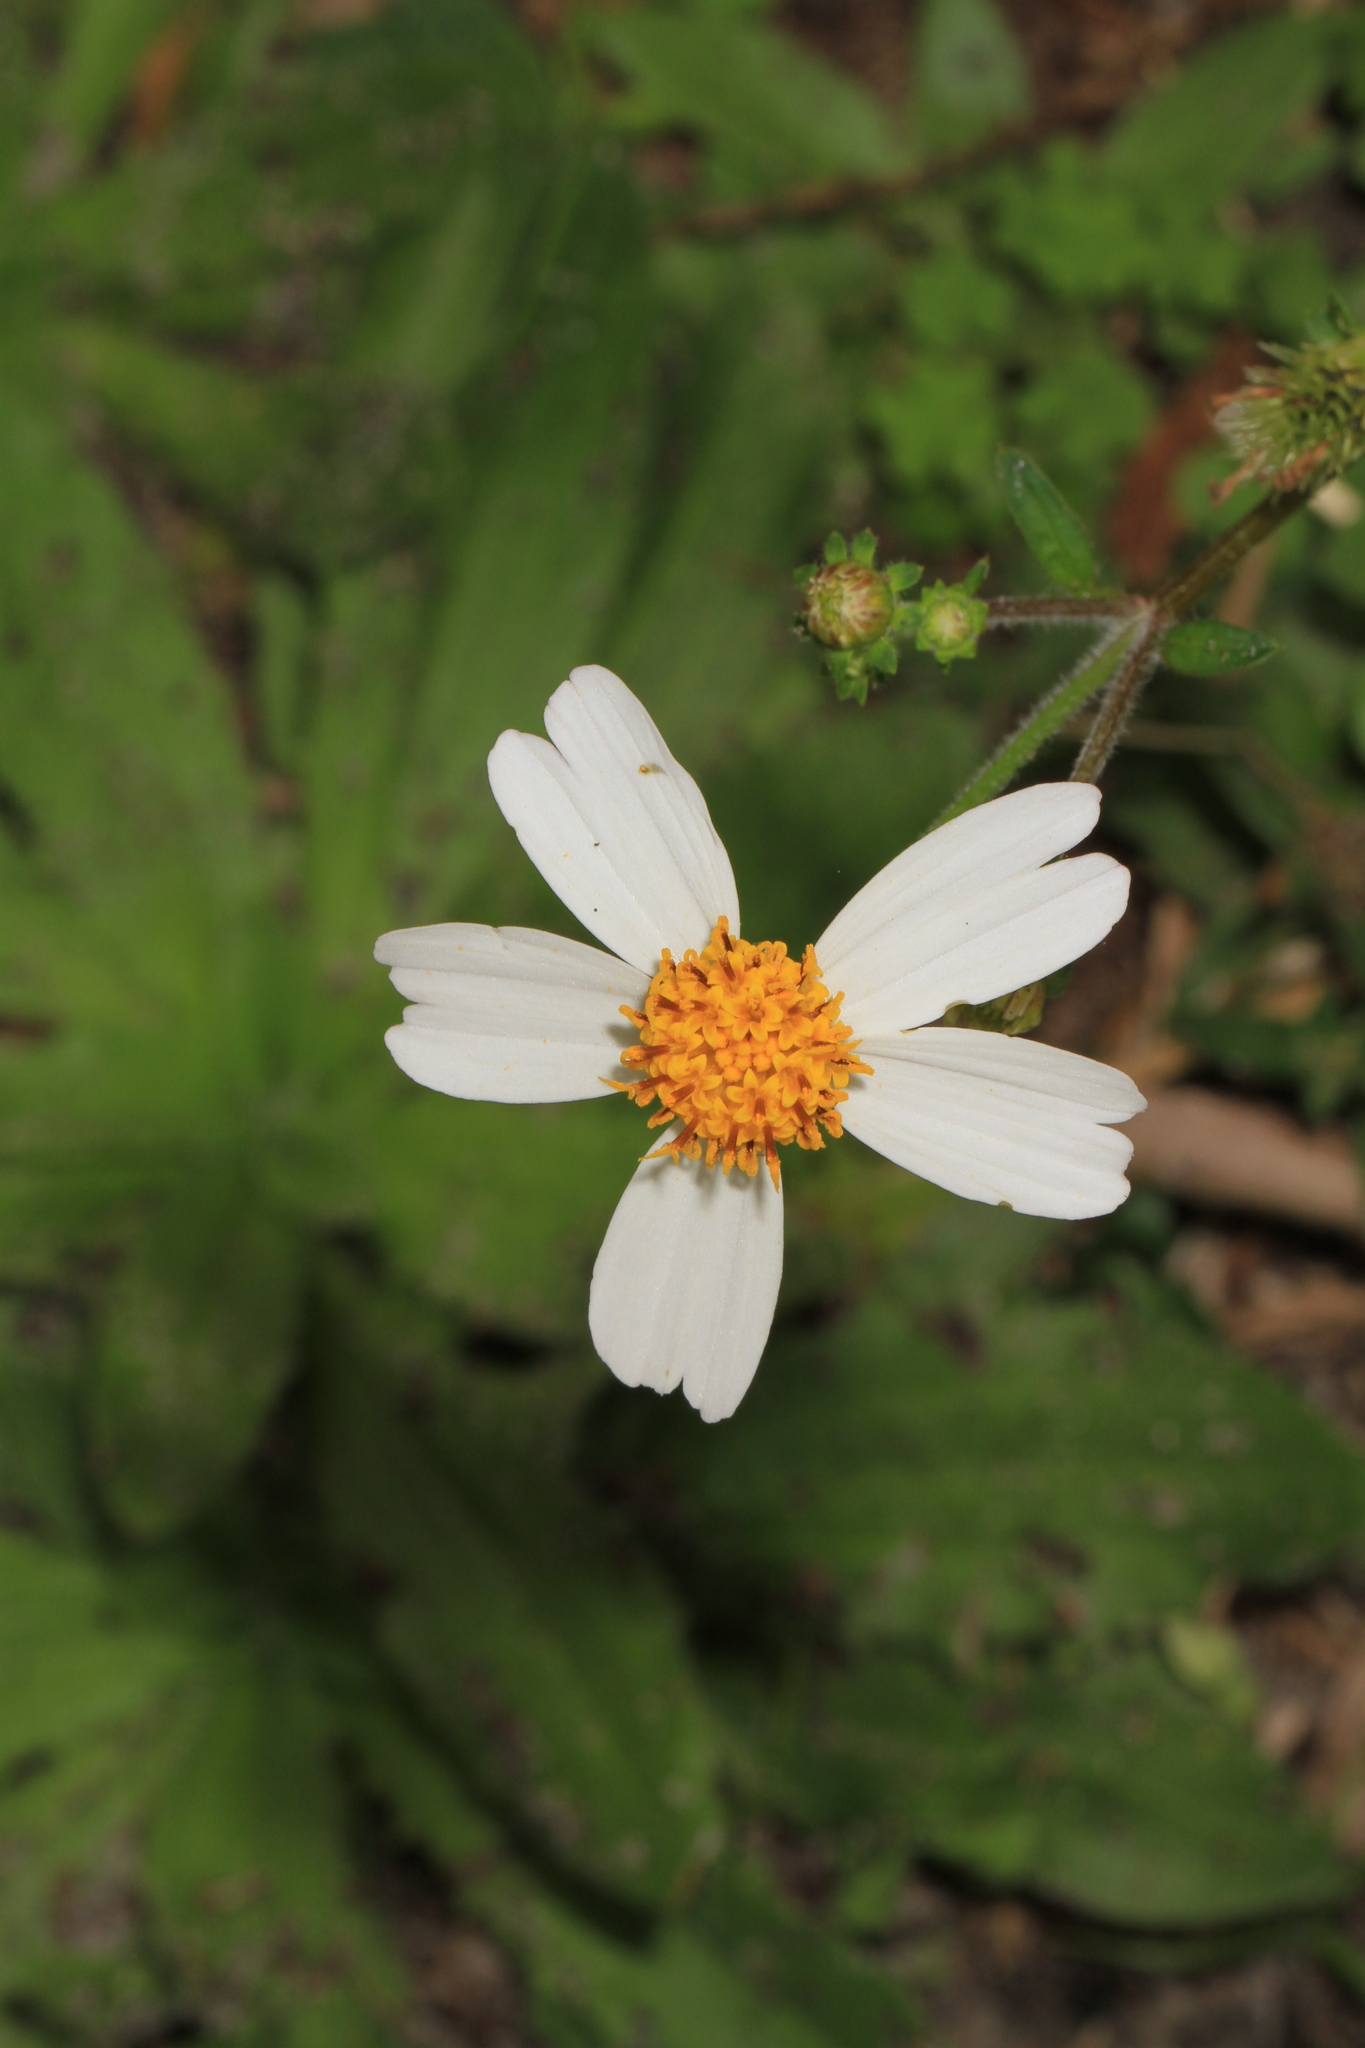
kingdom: Plantae
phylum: Tracheophyta
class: Magnoliopsida
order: Asterales
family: Asteraceae
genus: Bidens
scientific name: Bidens alba
